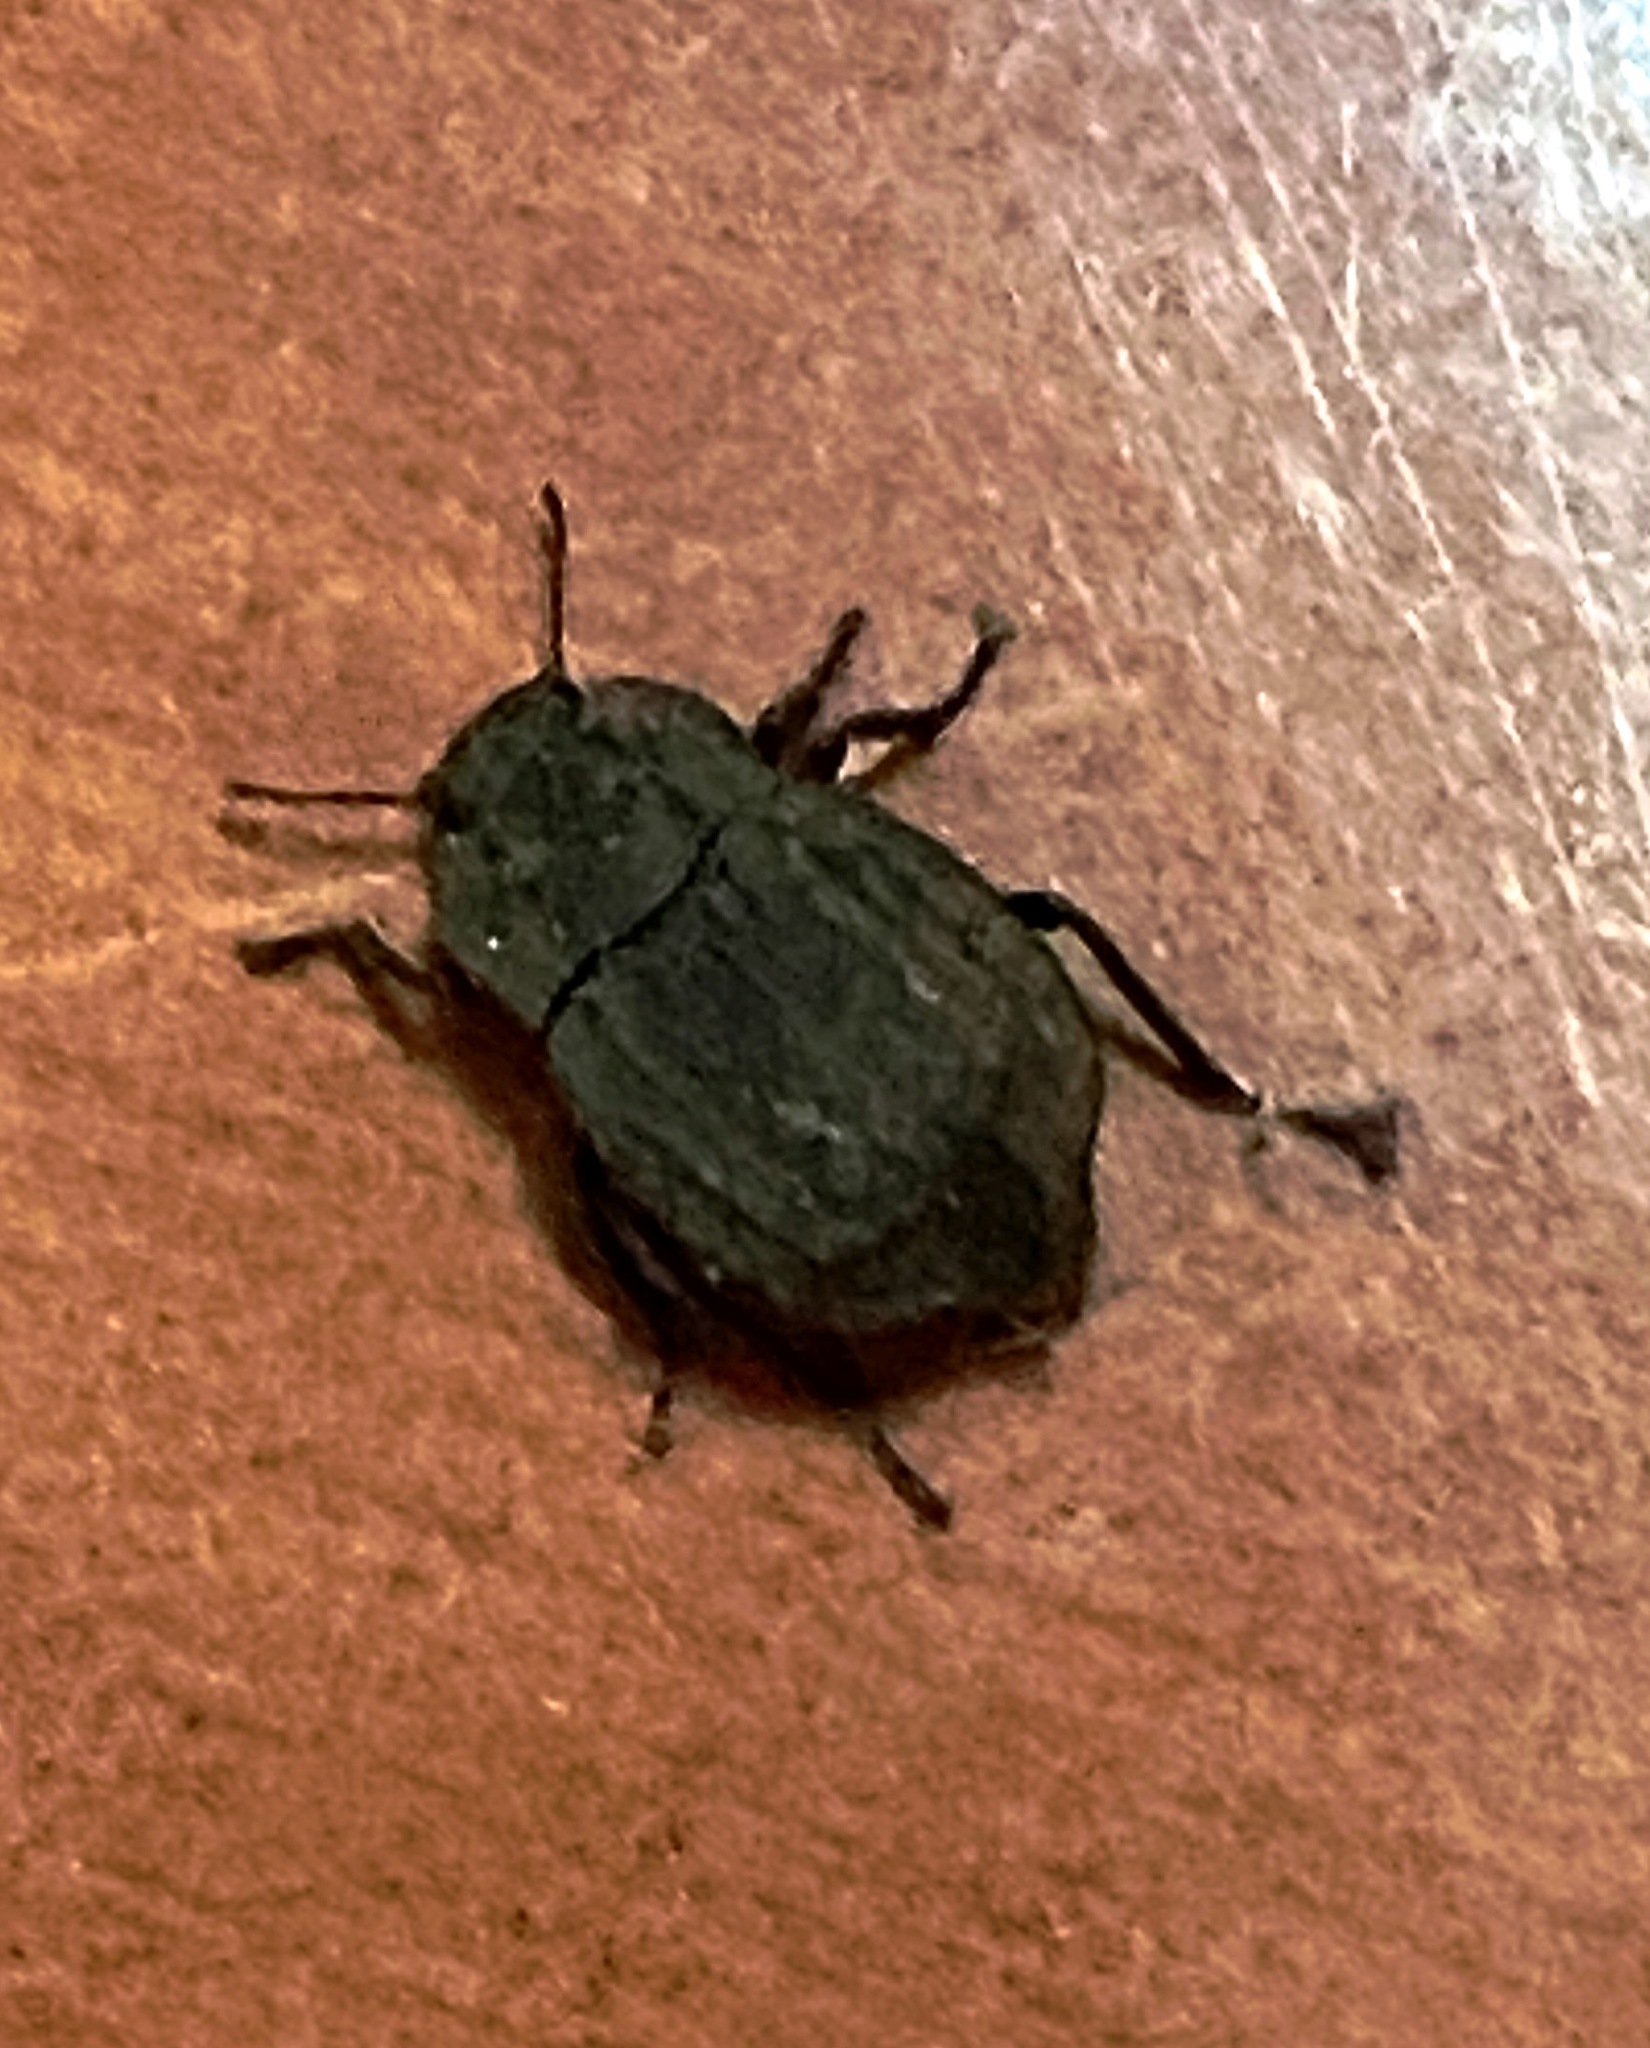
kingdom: Animalia
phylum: Arthropoda
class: Insecta
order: Coleoptera
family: Tenebrionidae
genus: Branchus
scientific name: Branchus obscurus
